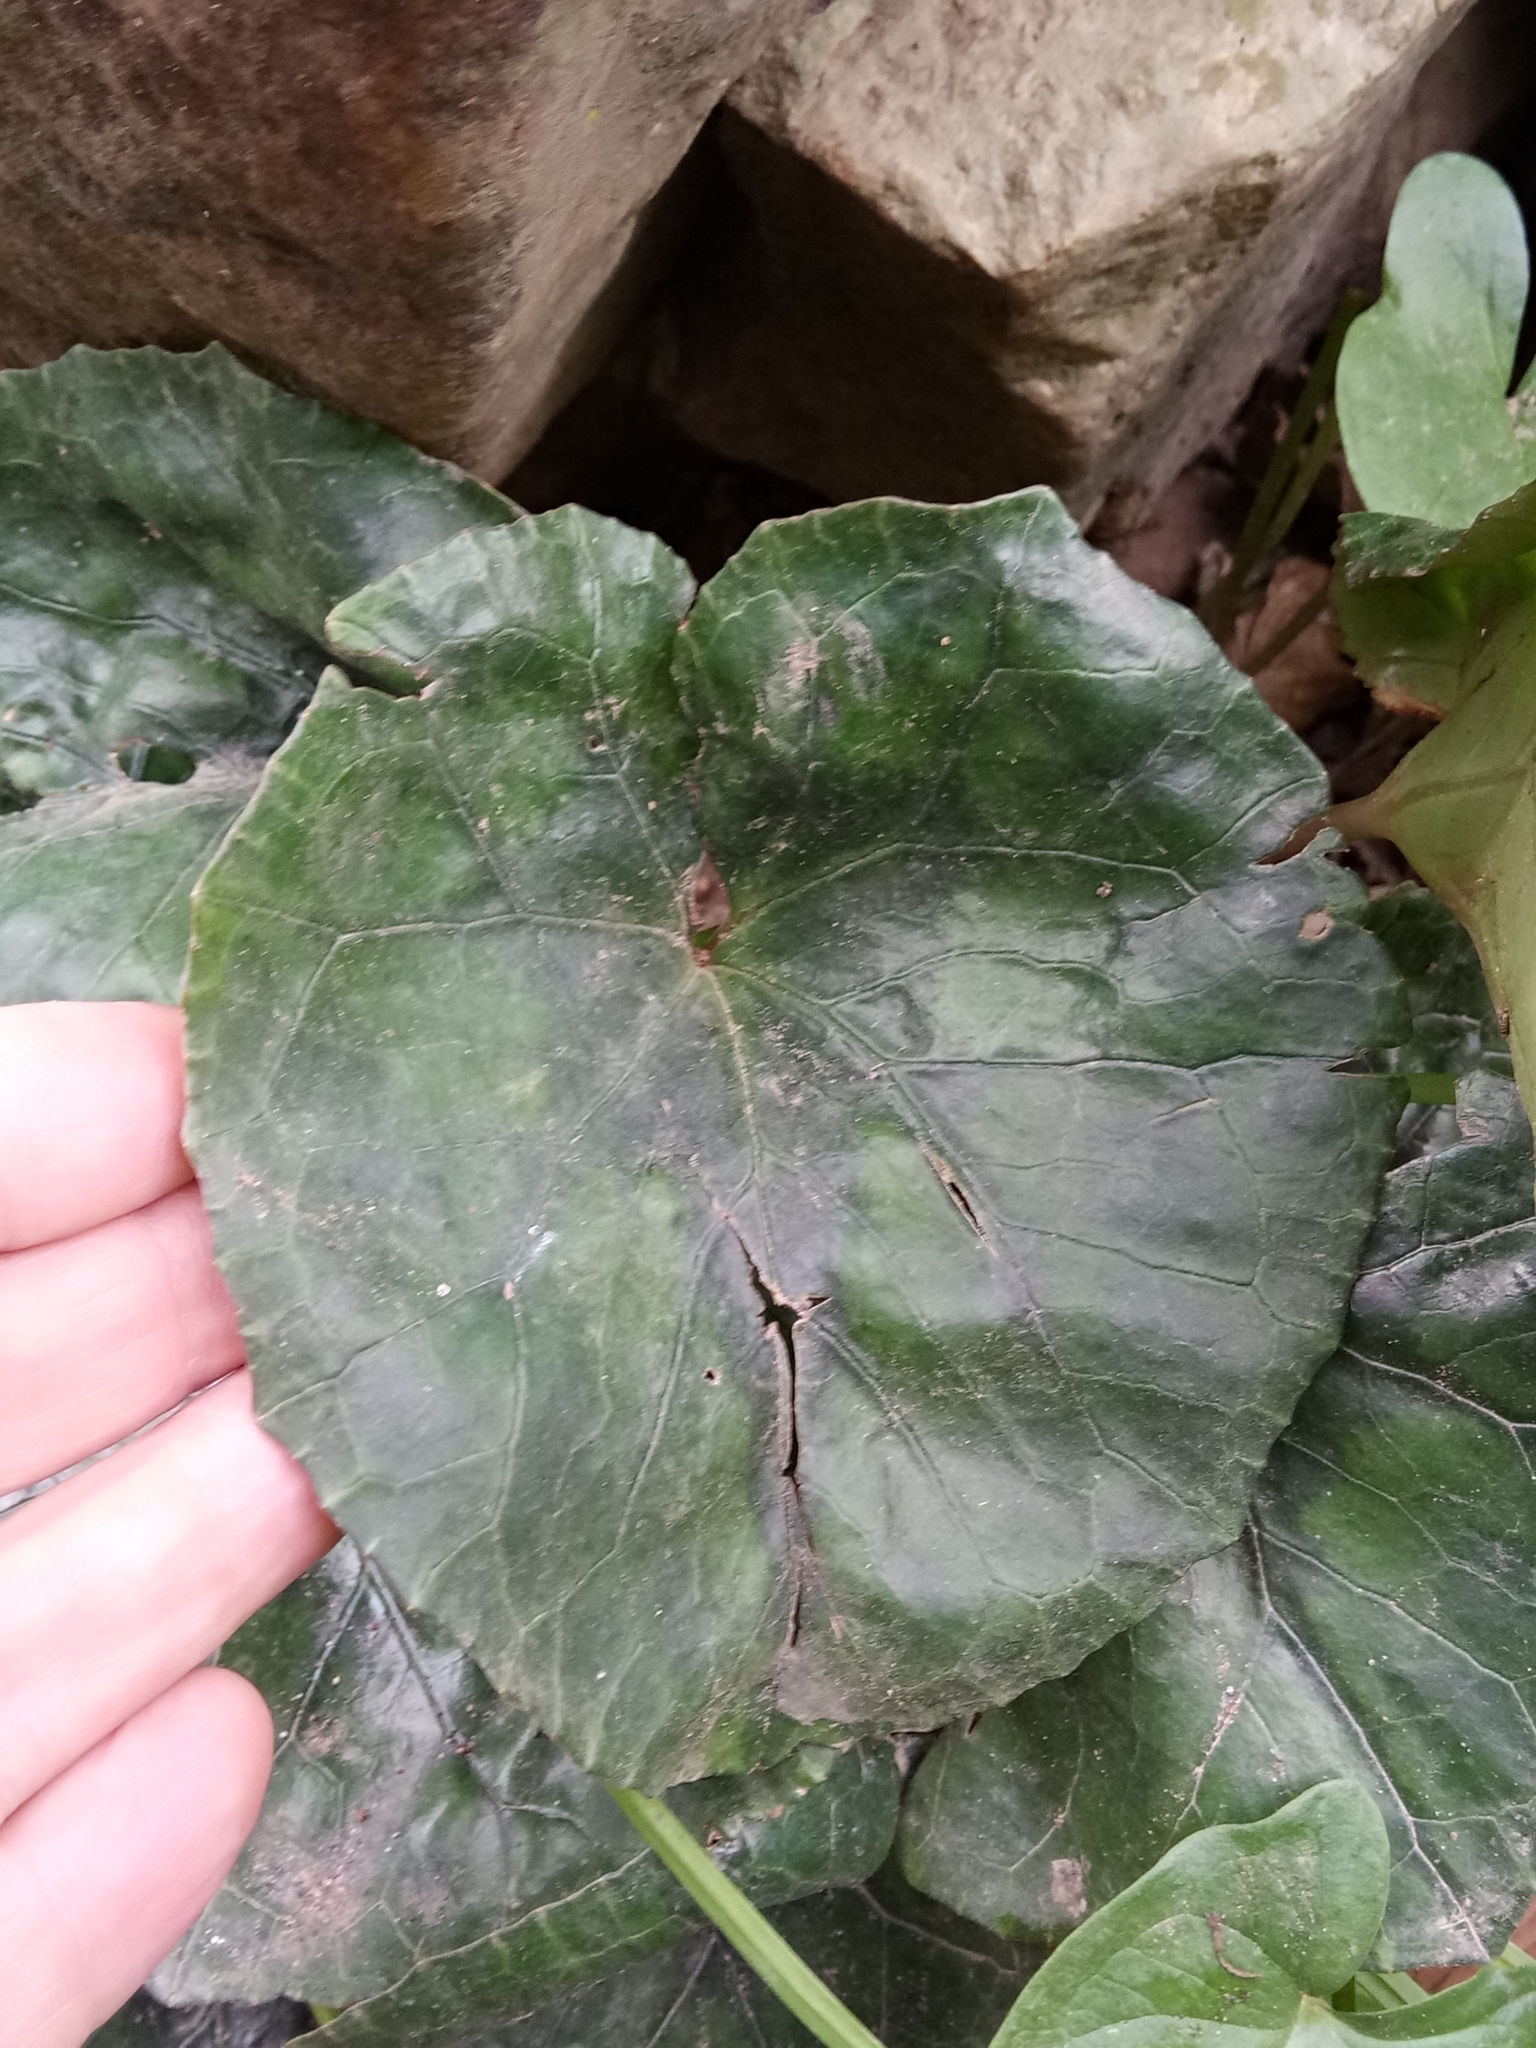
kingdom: Plantae
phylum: Tracheophyta
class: Magnoliopsida
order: Ericales
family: Primulaceae
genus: Cyclamen
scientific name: Cyclamen africanum
